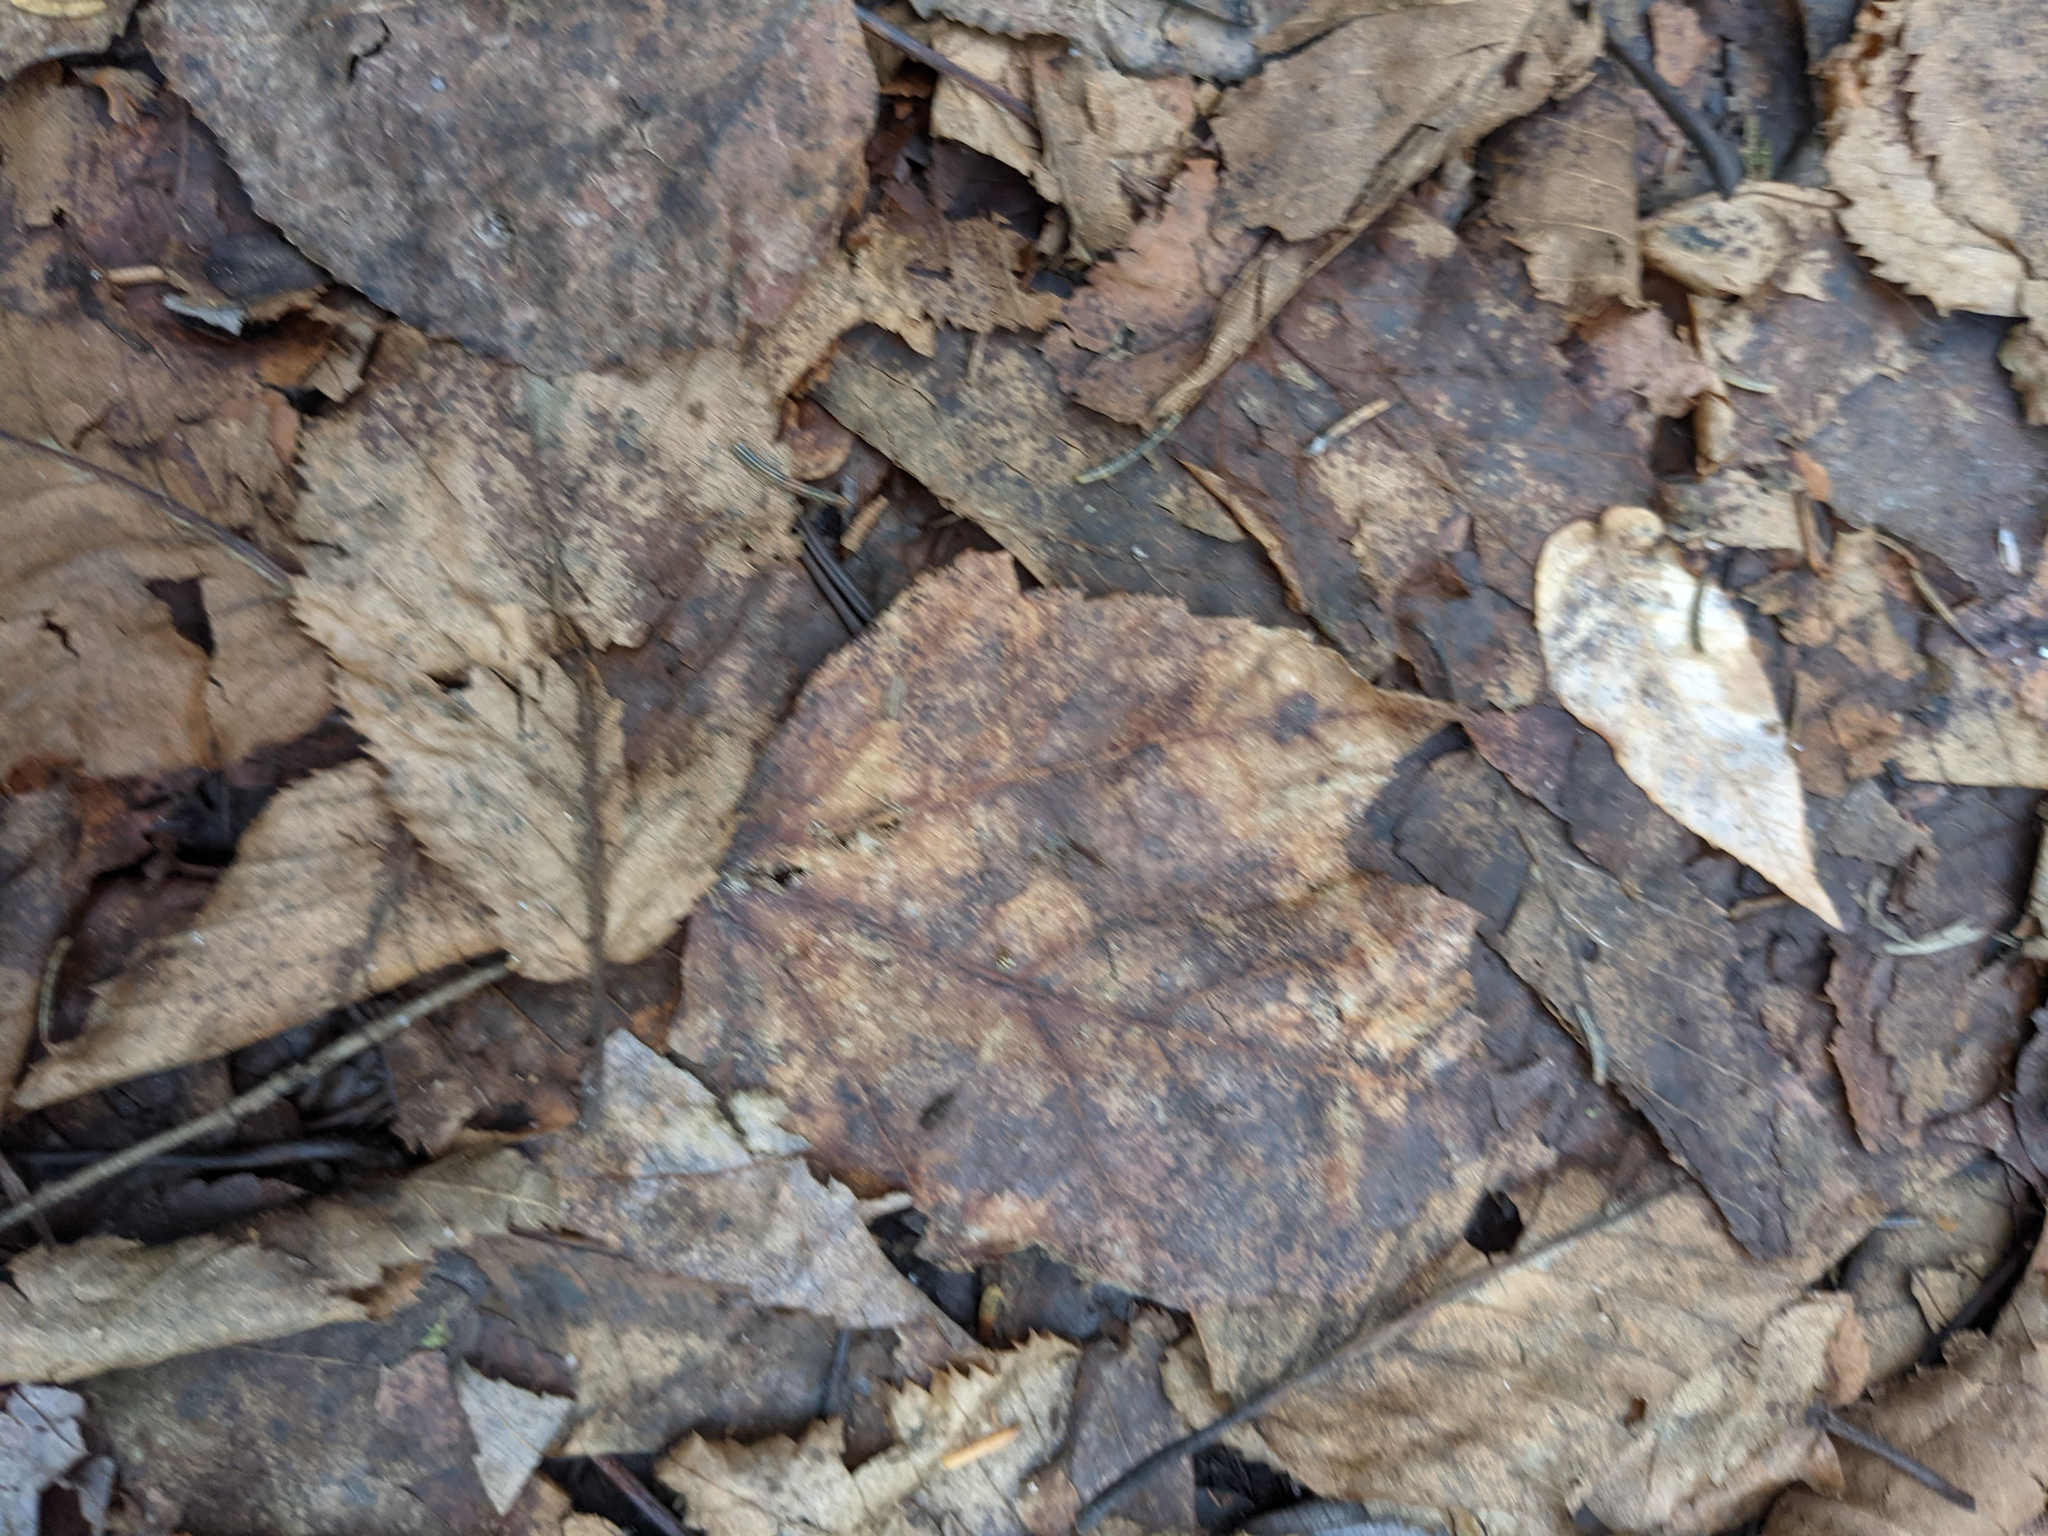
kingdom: Plantae
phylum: Tracheophyta
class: Magnoliopsida
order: Sapindales
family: Sapindaceae
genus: Acer
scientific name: Acer rubrum
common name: Red maple
